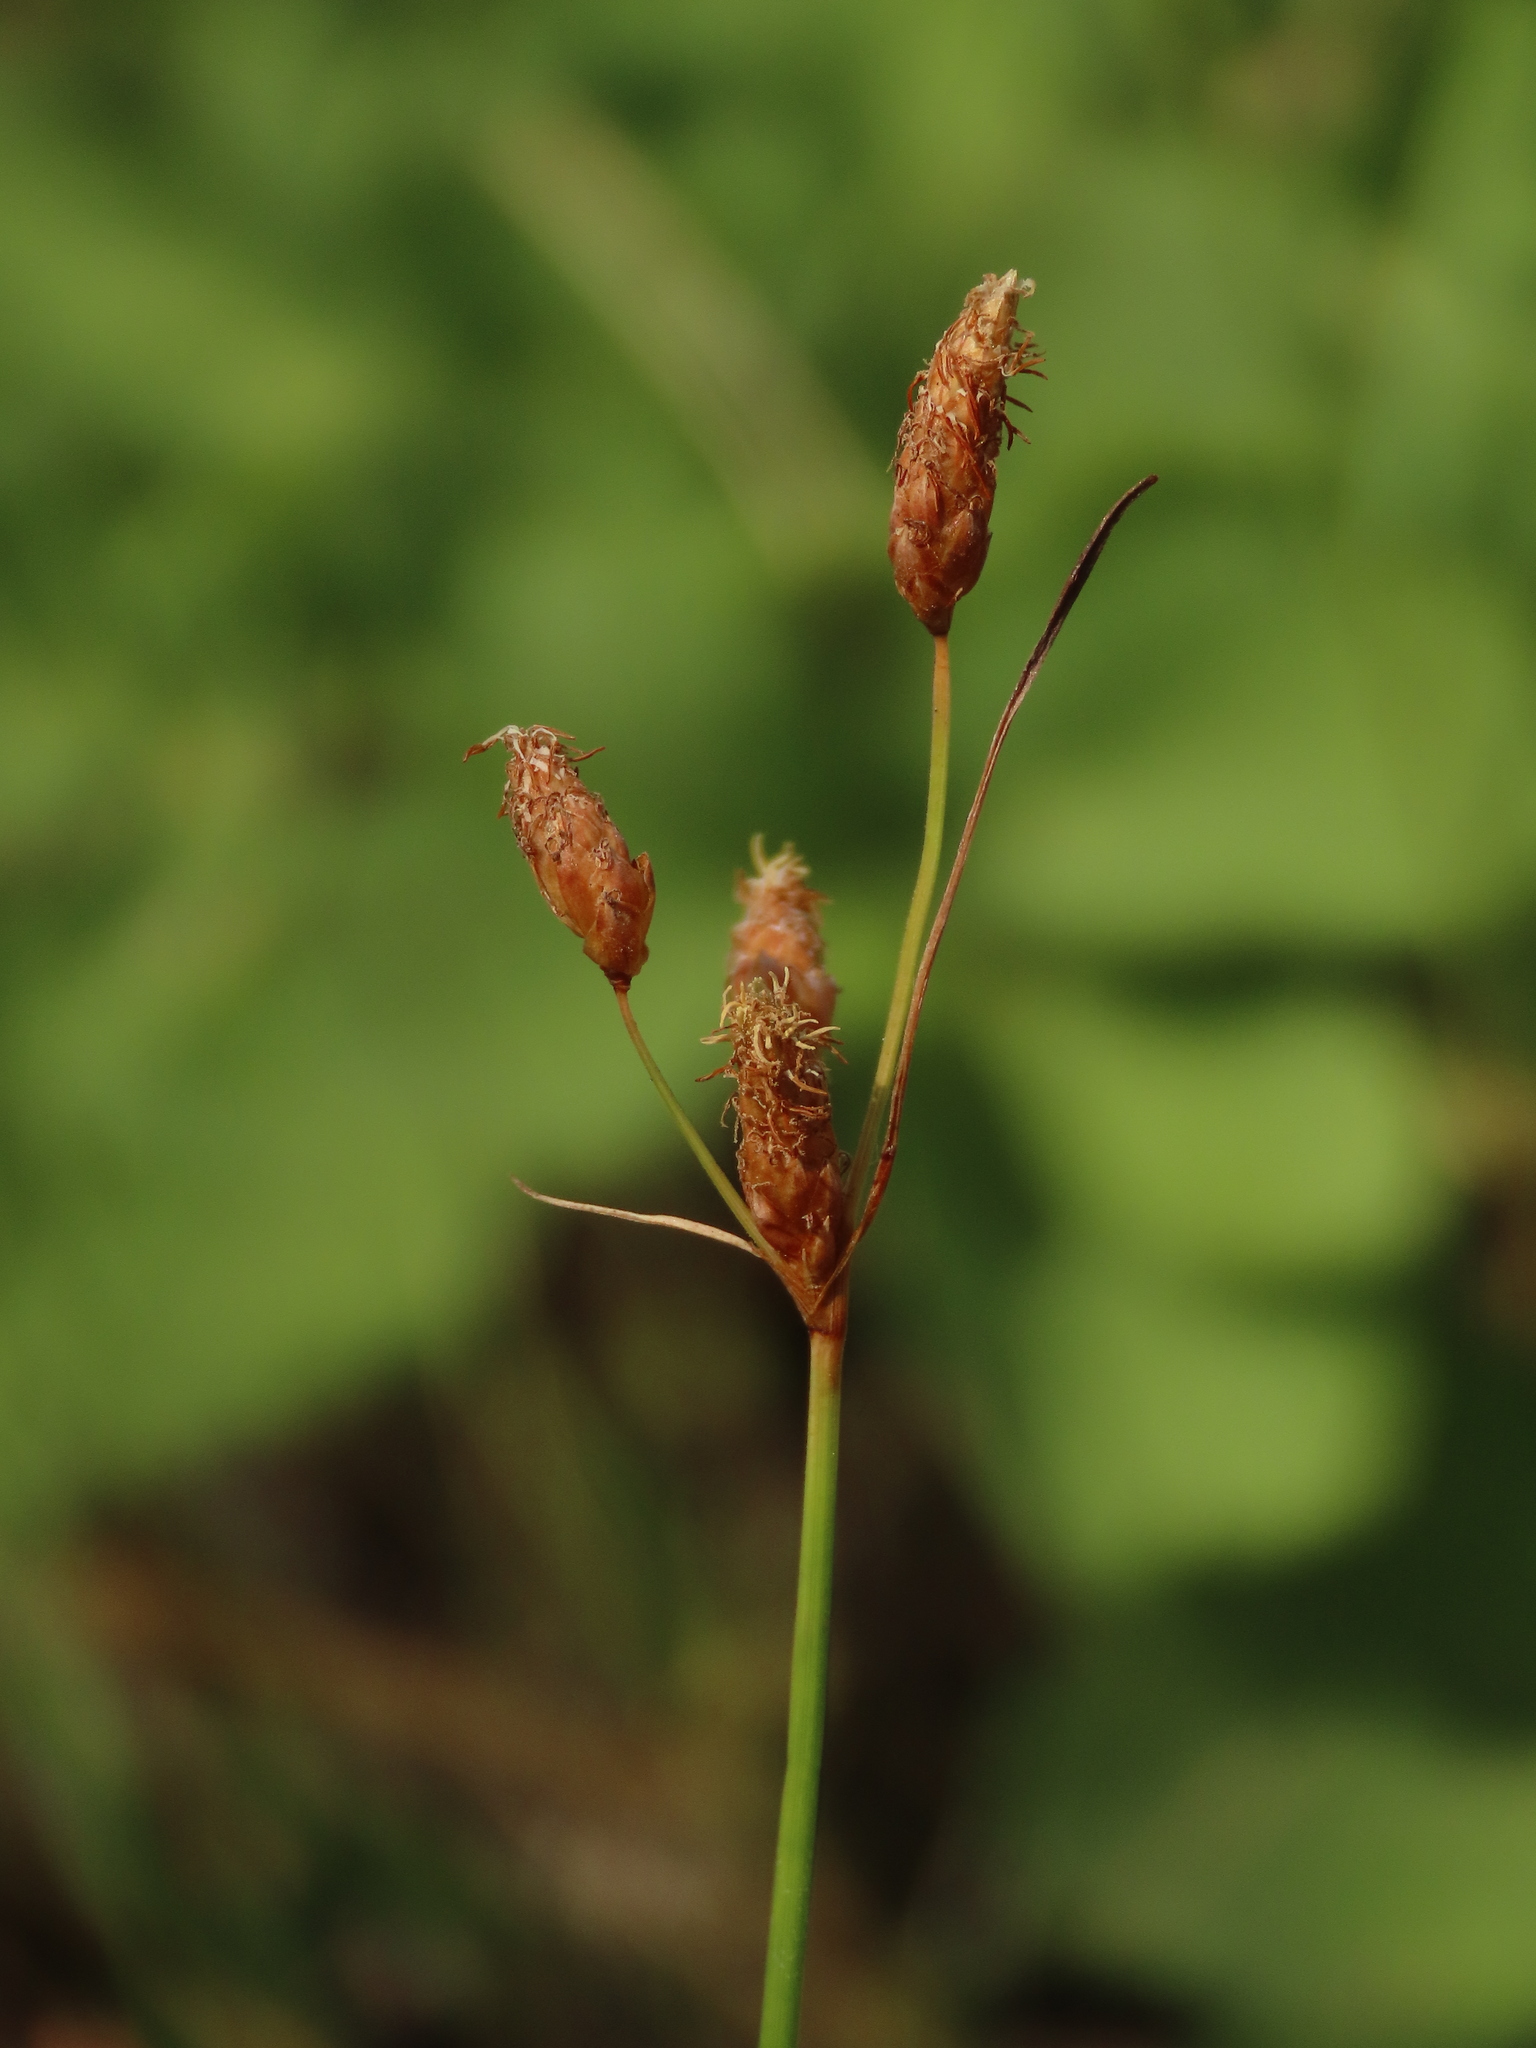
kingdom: Plantae
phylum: Tracheophyta
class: Liliopsida
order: Poales
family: Cyperaceae
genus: Fimbristylis
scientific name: Fimbristylis sieboldii
